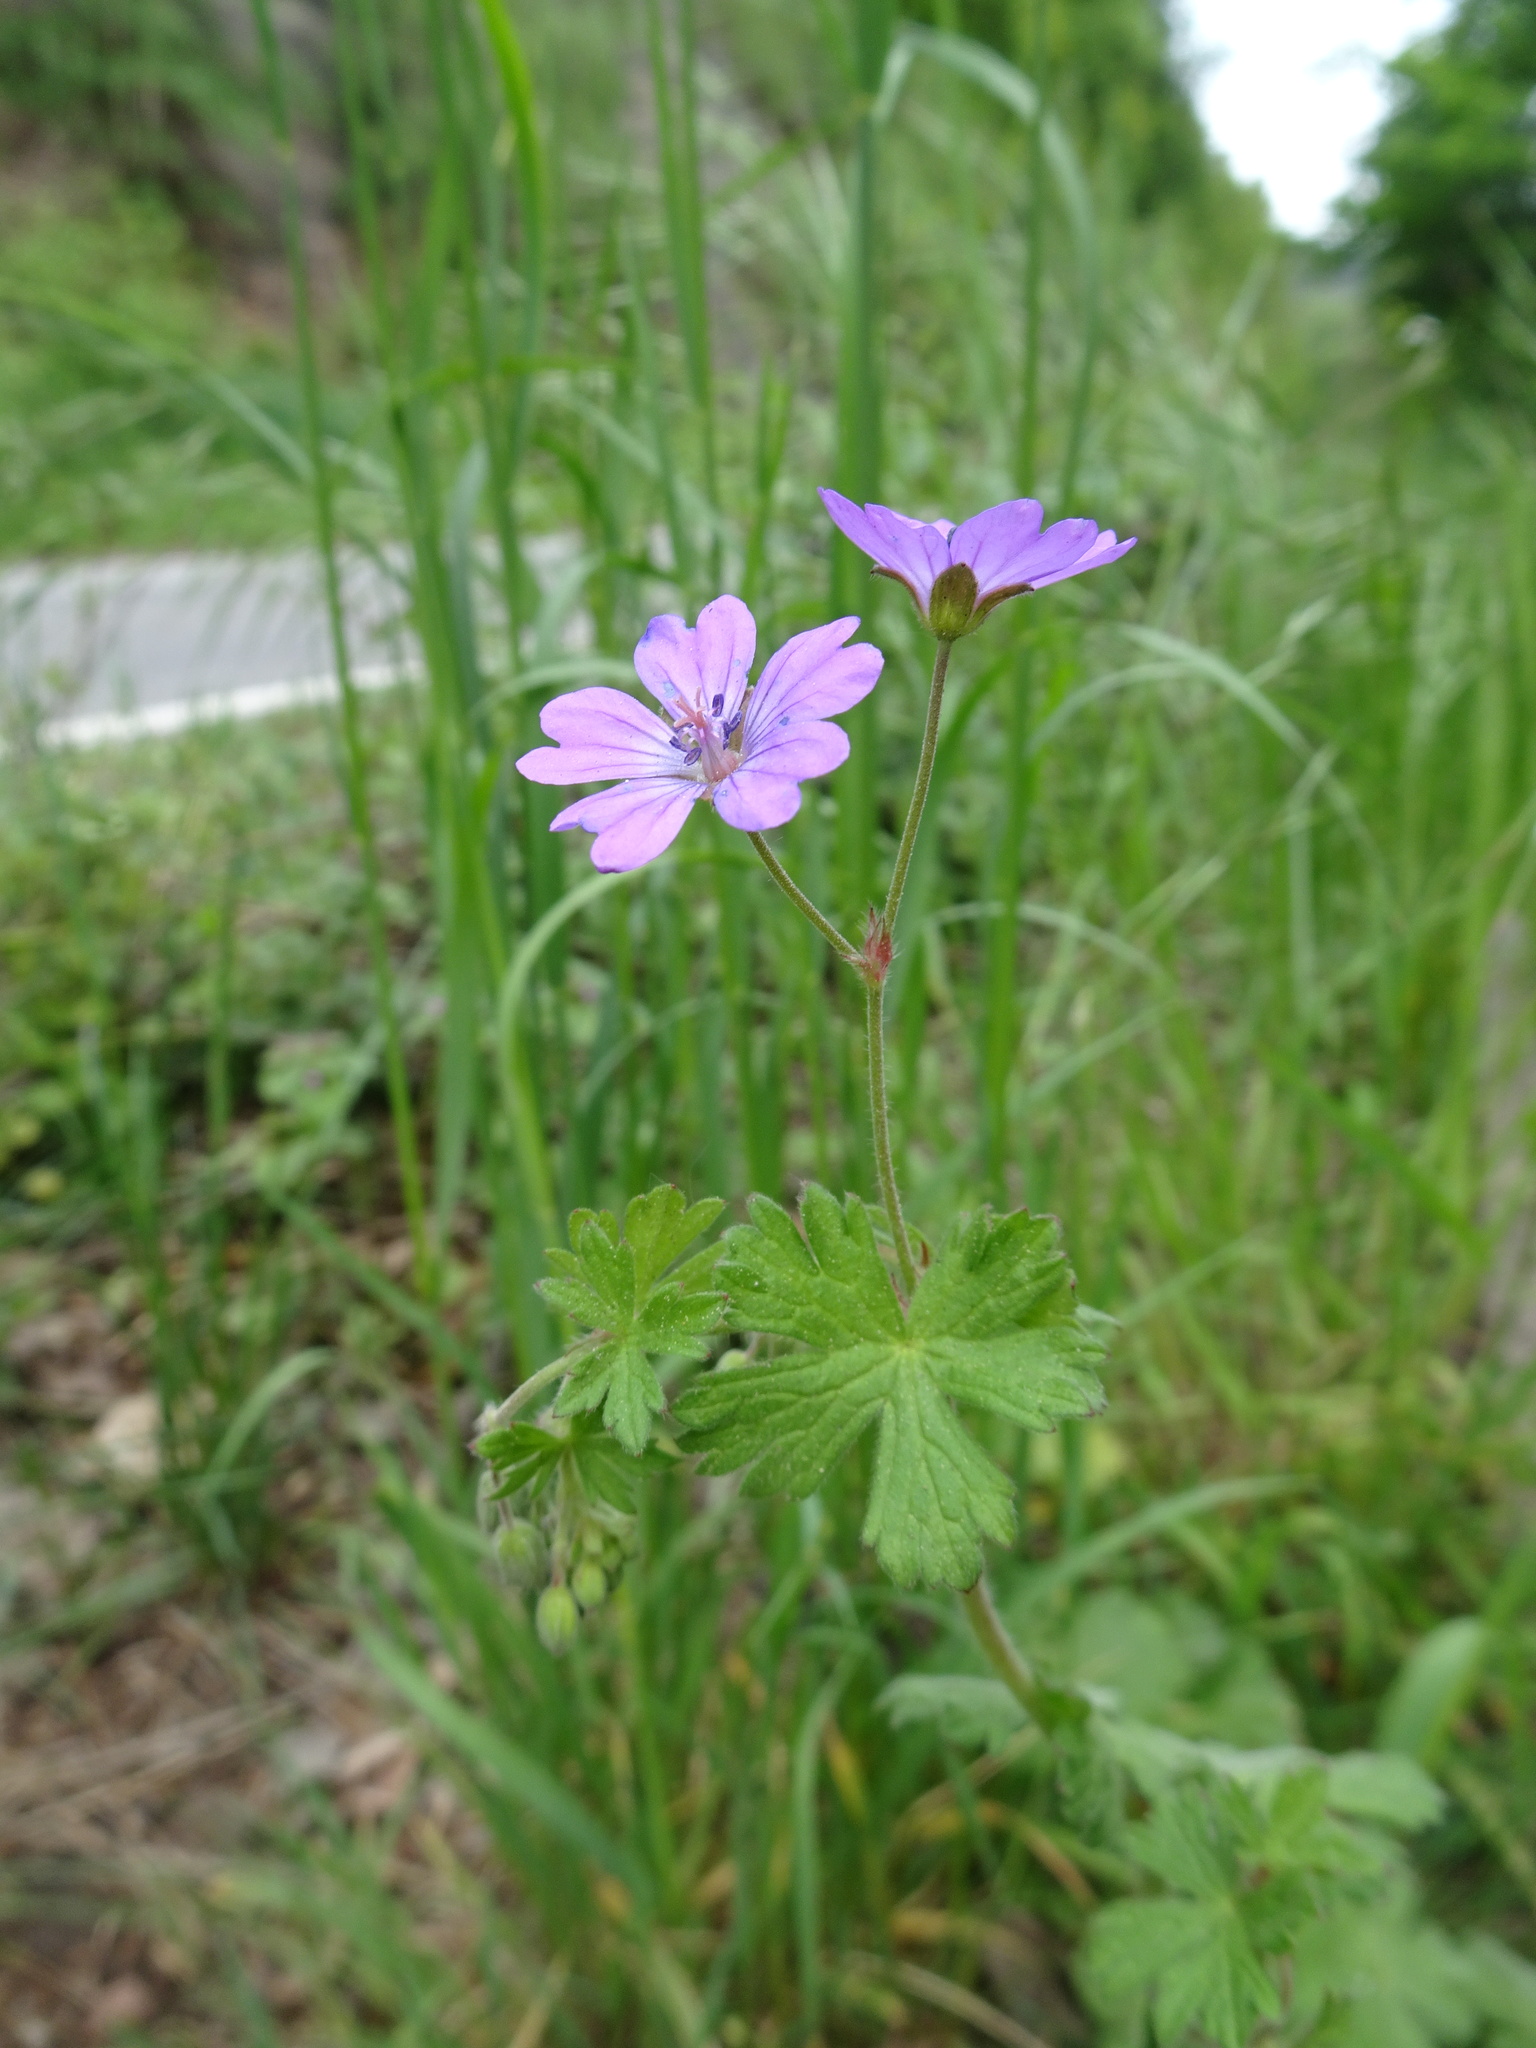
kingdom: Plantae
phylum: Tracheophyta
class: Magnoliopsida
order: Geraniales
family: Geraniaceae
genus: Geranium
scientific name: Geranium pyrenaicum
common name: Hedgerow crane's-bill
